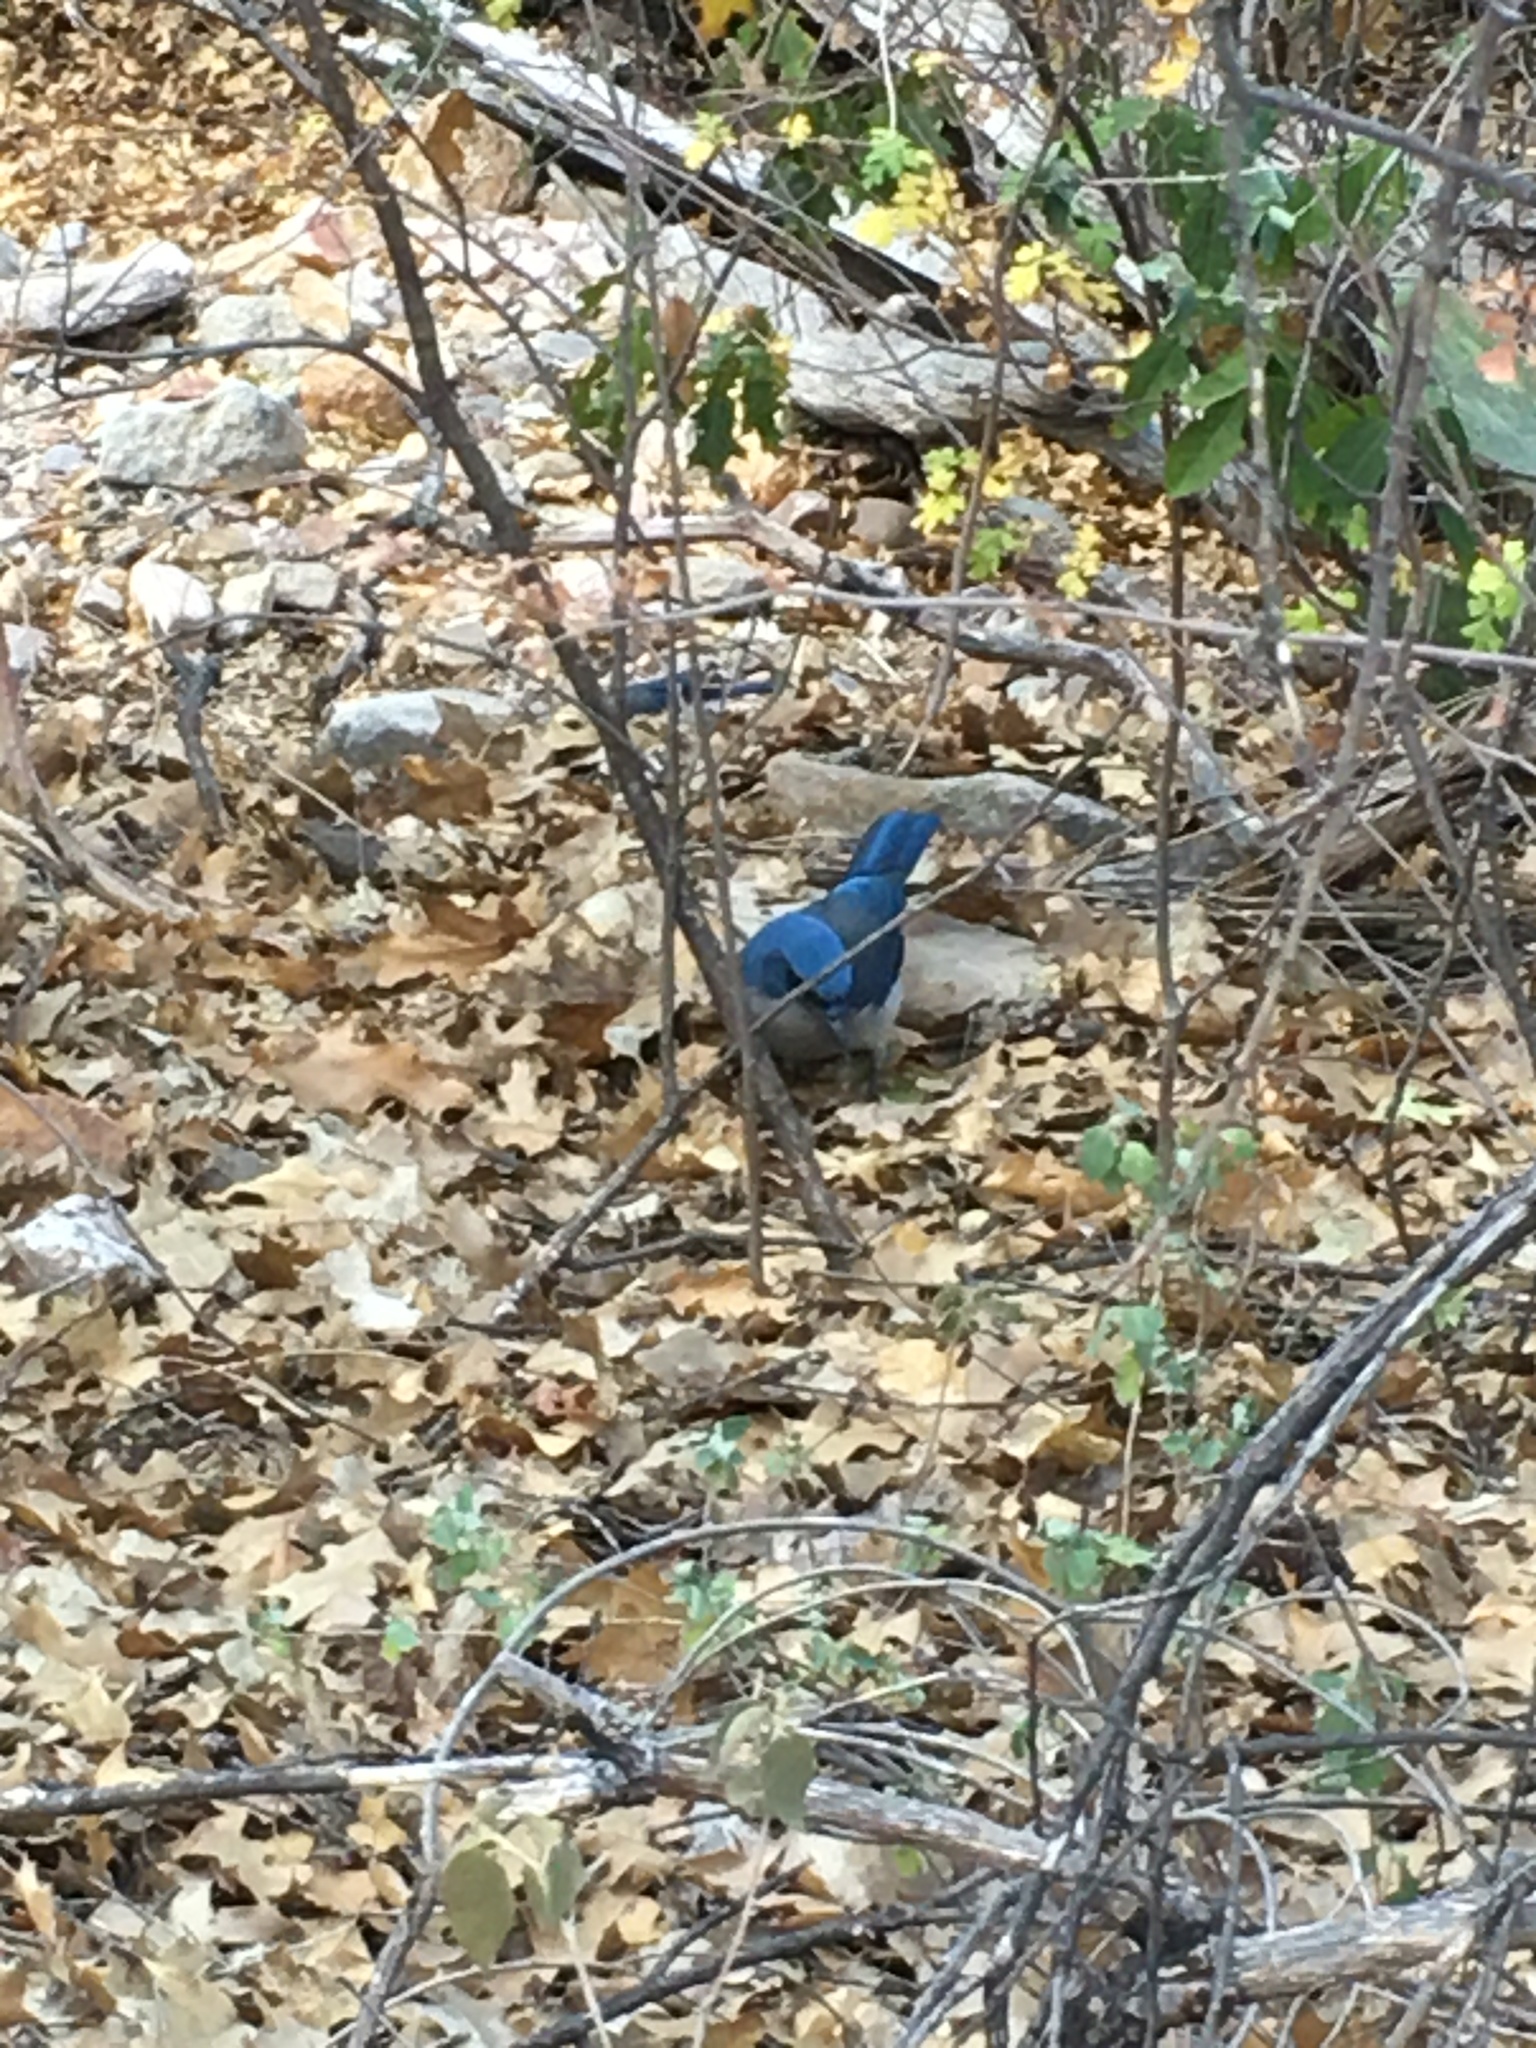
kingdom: Animalia
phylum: Chordata
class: Aves
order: Passeriformes
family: Corvidae
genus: Aphelocoma
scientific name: Aphelocoma wollweberi
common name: Mexican jay
